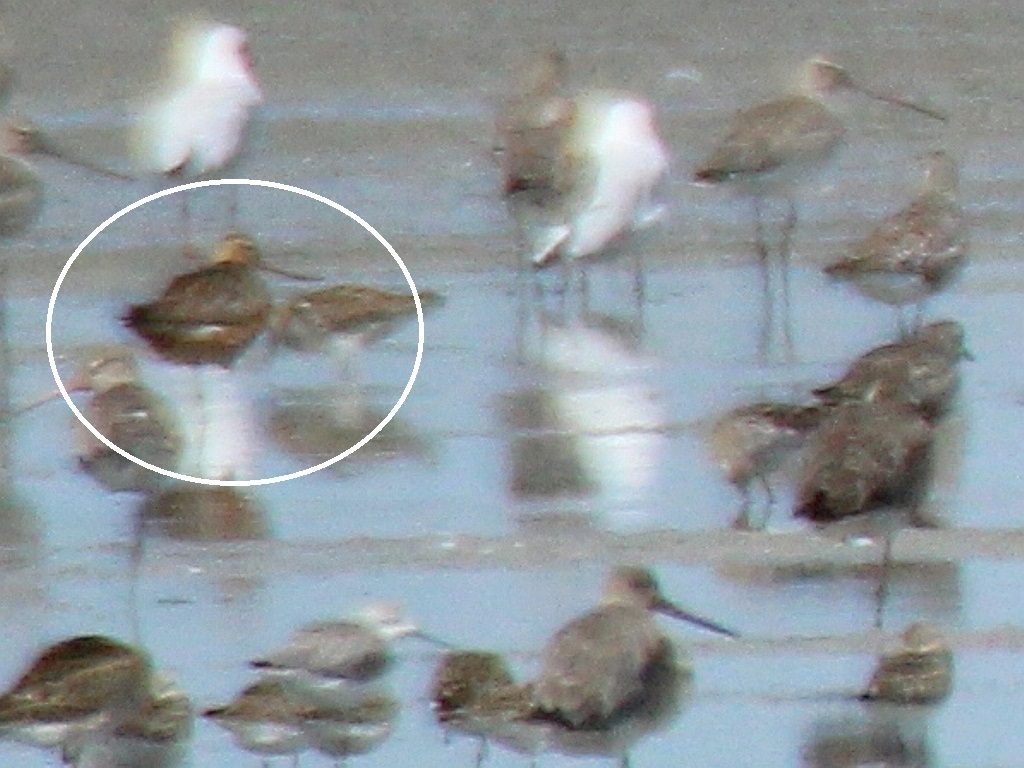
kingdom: Animalia
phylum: Chordata
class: Aves
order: Charadriiformes
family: Scolopacidae
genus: Limosa
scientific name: Limosa lapponica
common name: Bar-tailed godwit
